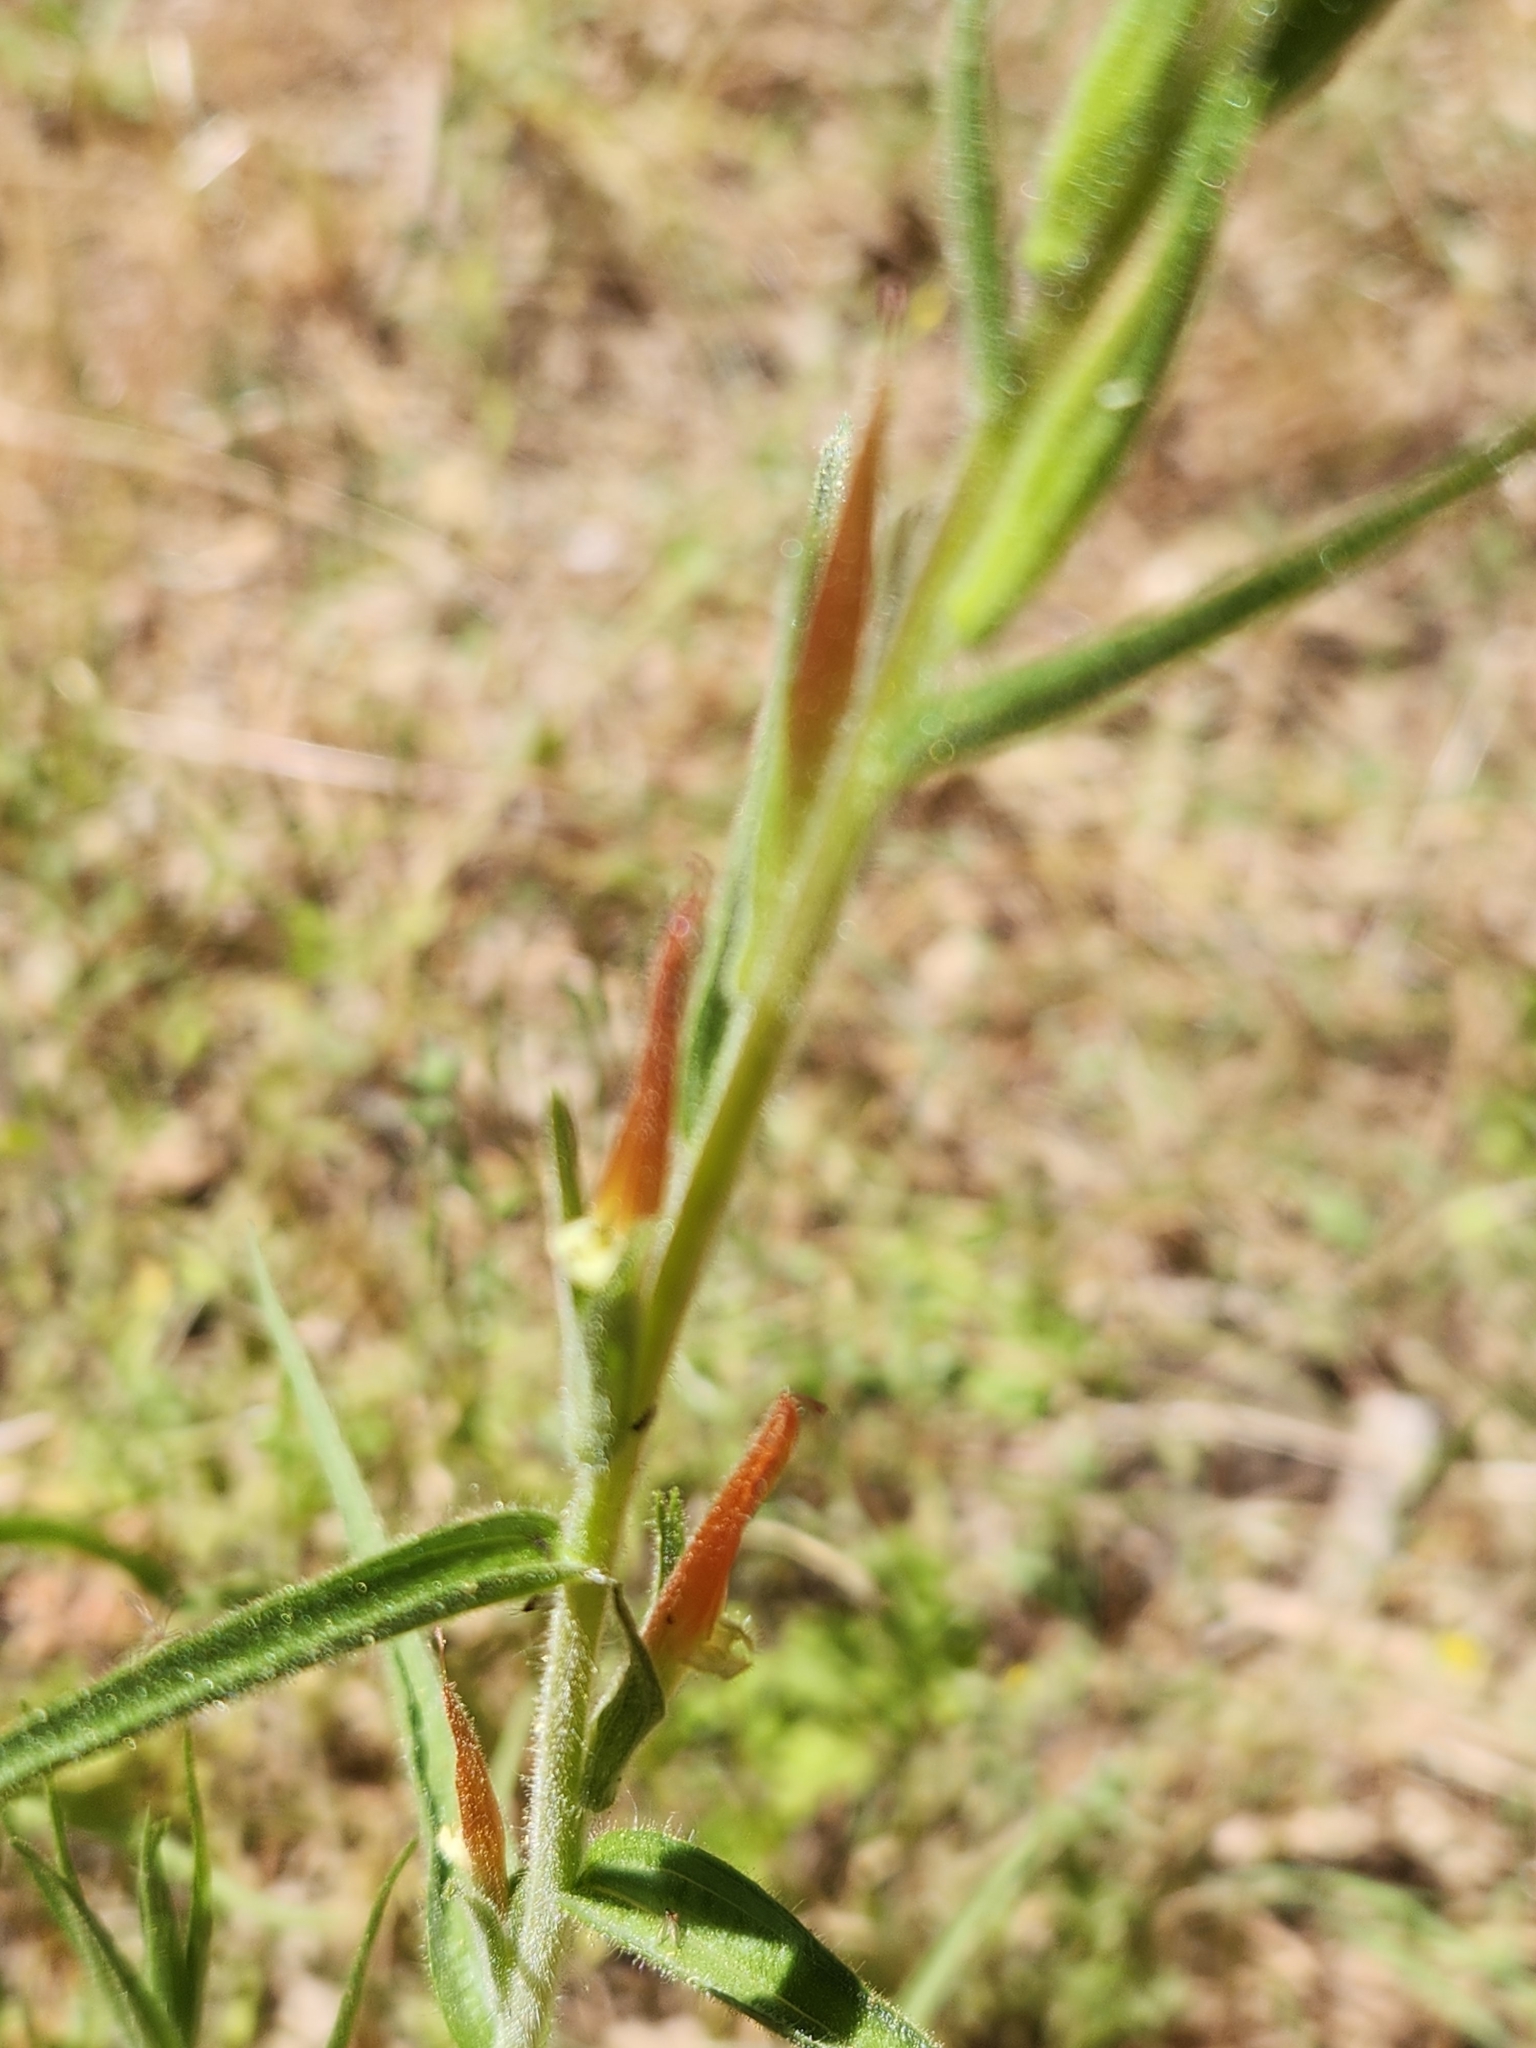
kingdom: Plantae
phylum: Tracheophyta
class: Magnoliopsida
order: Lamiales
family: Orobanchaceae
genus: Castilleja
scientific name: Castilleja minor
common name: Seep paintbrush
